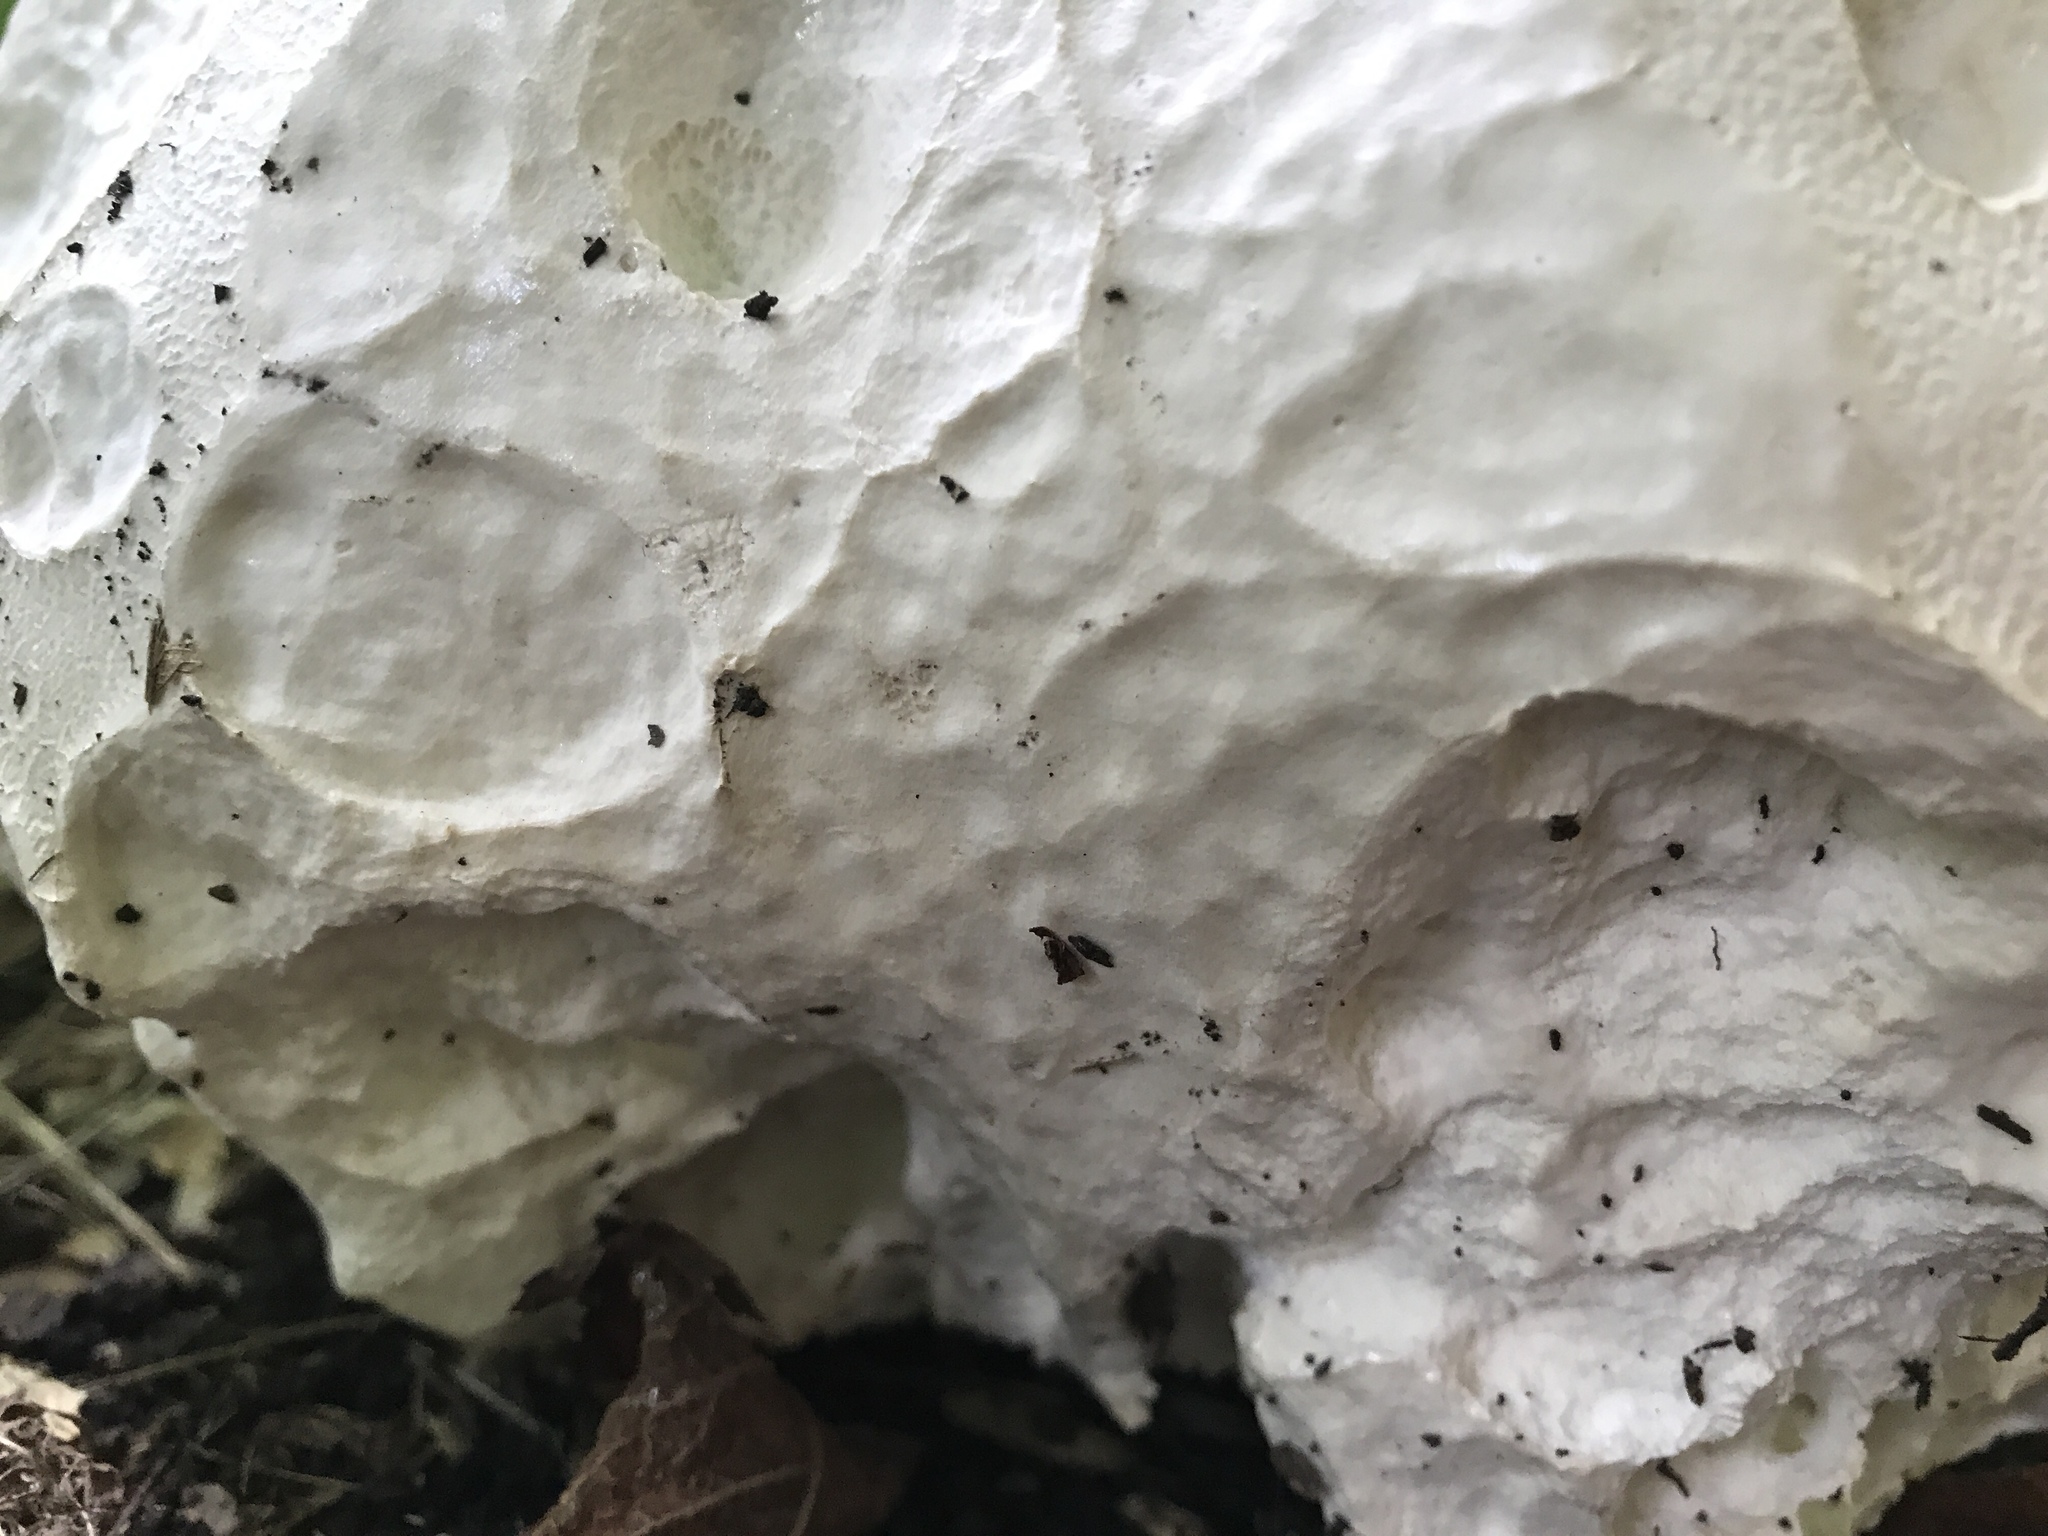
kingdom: Fungi
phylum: Basidiomycota
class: Agaricomycetes
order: Agaricales
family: Lycoperdaceae
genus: Calvatia
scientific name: Calvatia gigantea
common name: Giant puffball
